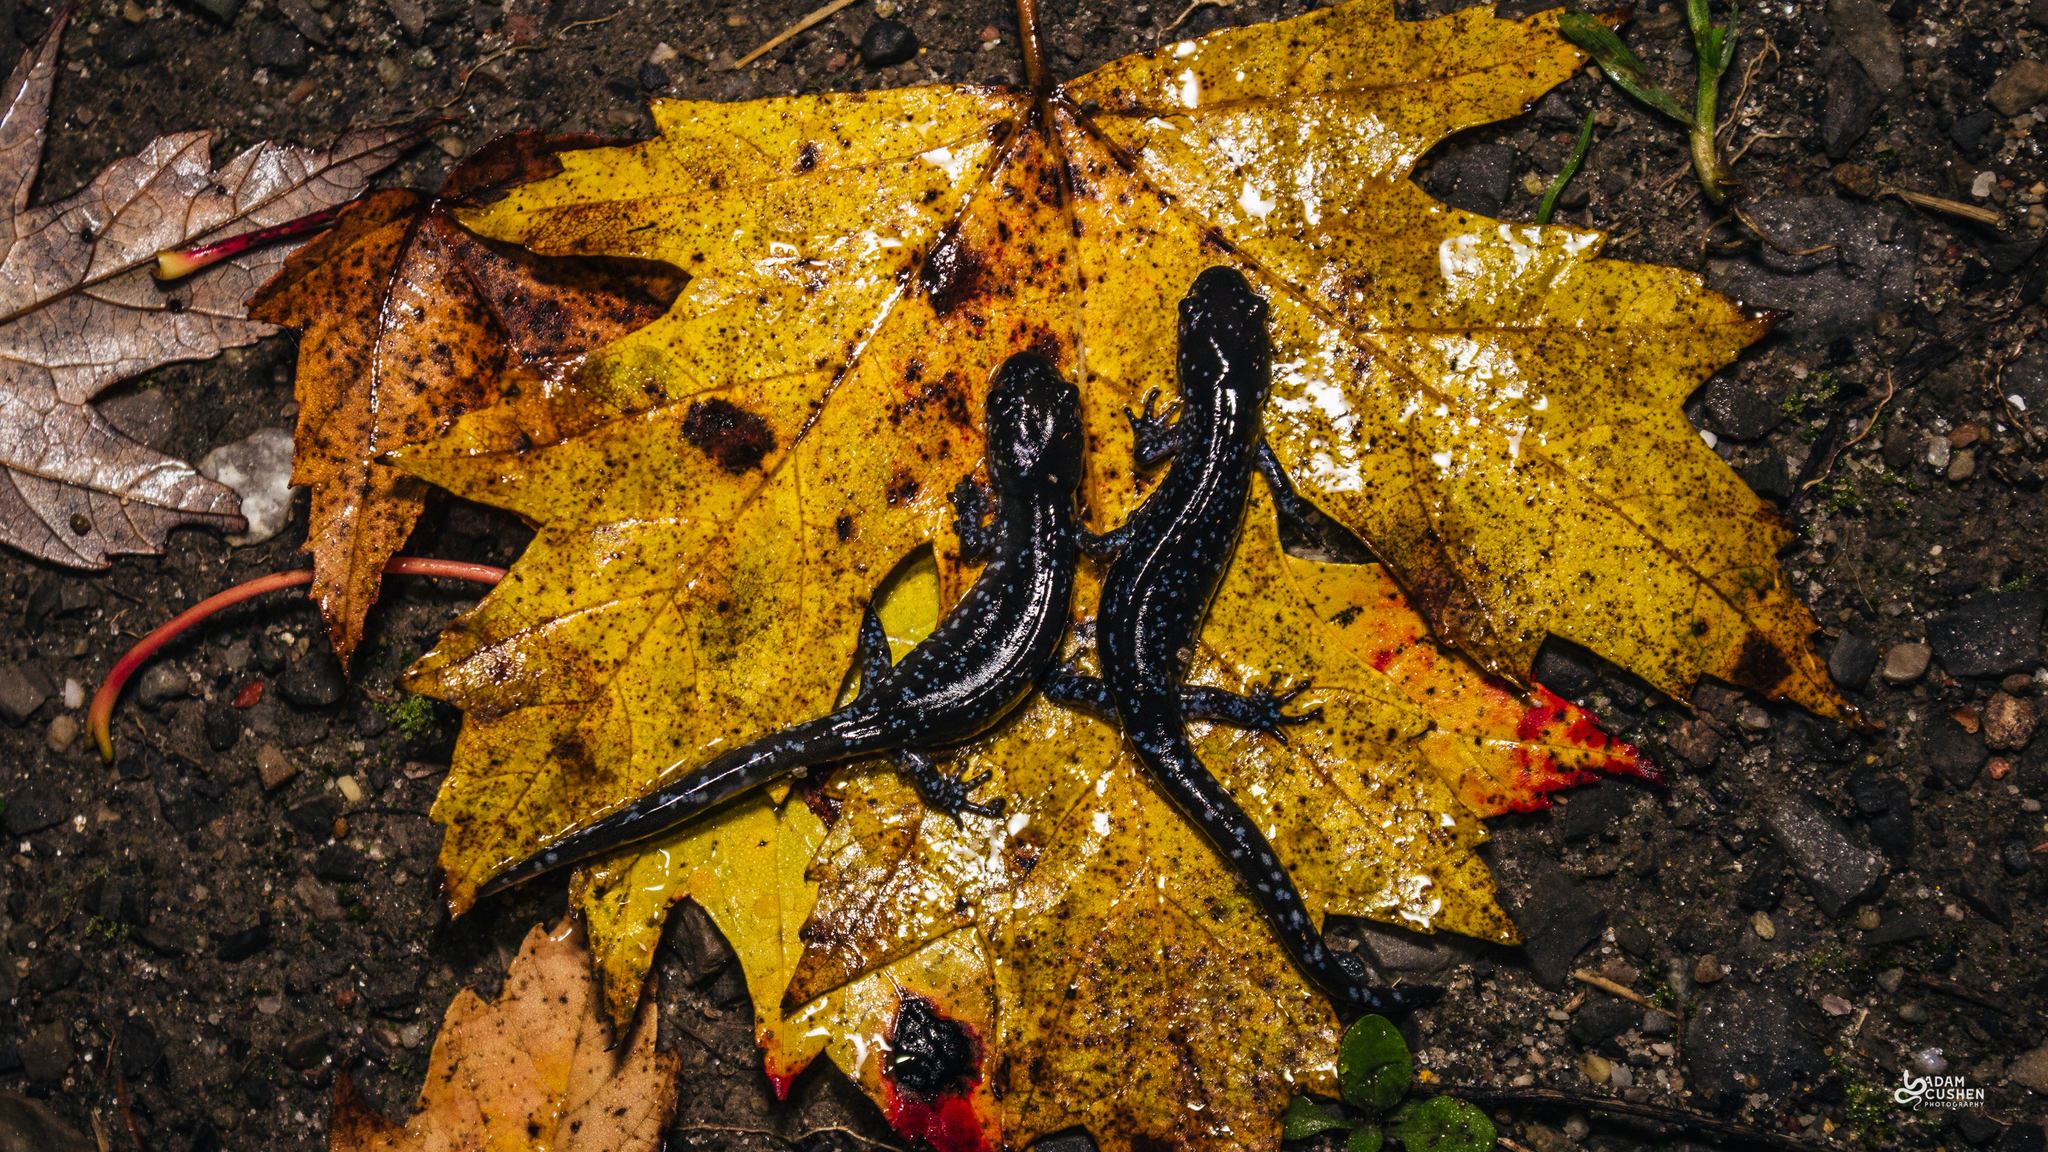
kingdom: Animalia
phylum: Chordata
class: Amphibia
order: Caudata
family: Ambystomatidae
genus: Ambystoma
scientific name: Ambystoma laterale
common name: Blue-spotted salamander
